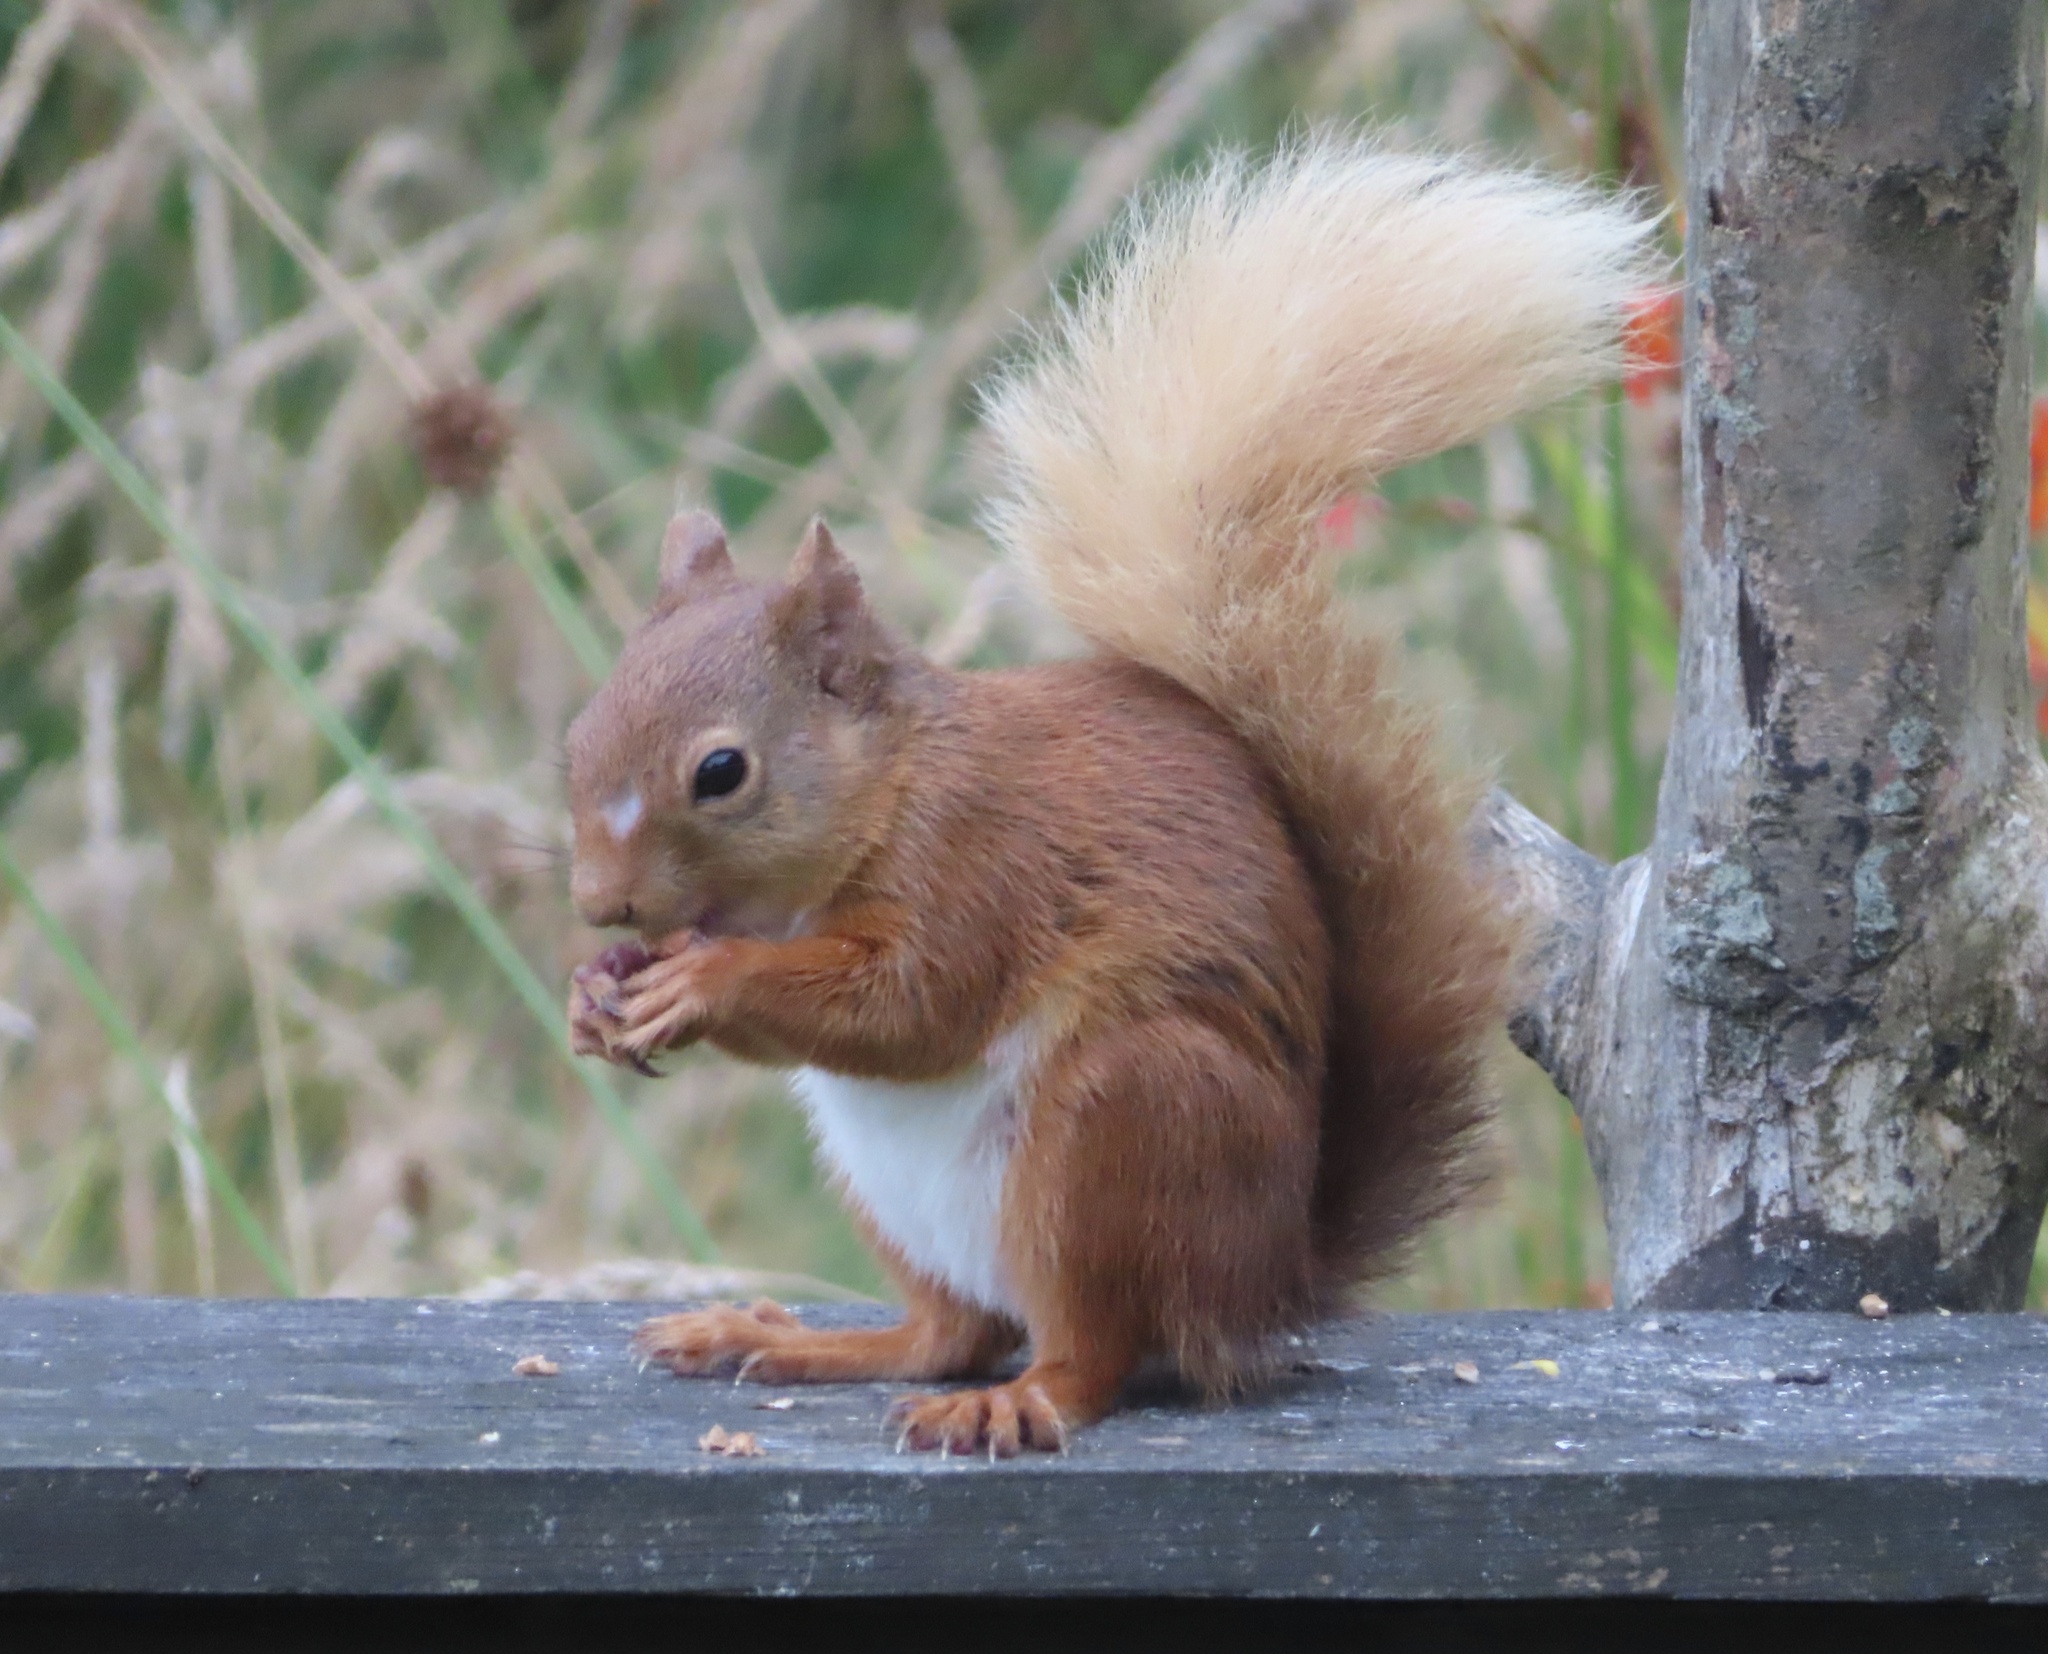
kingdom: Animalia
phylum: Chordata
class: Mammalia
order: Rodentia
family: Sciuridae
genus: Sciurus
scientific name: Sciurus vulgaris
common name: Eurasian red squirrel
